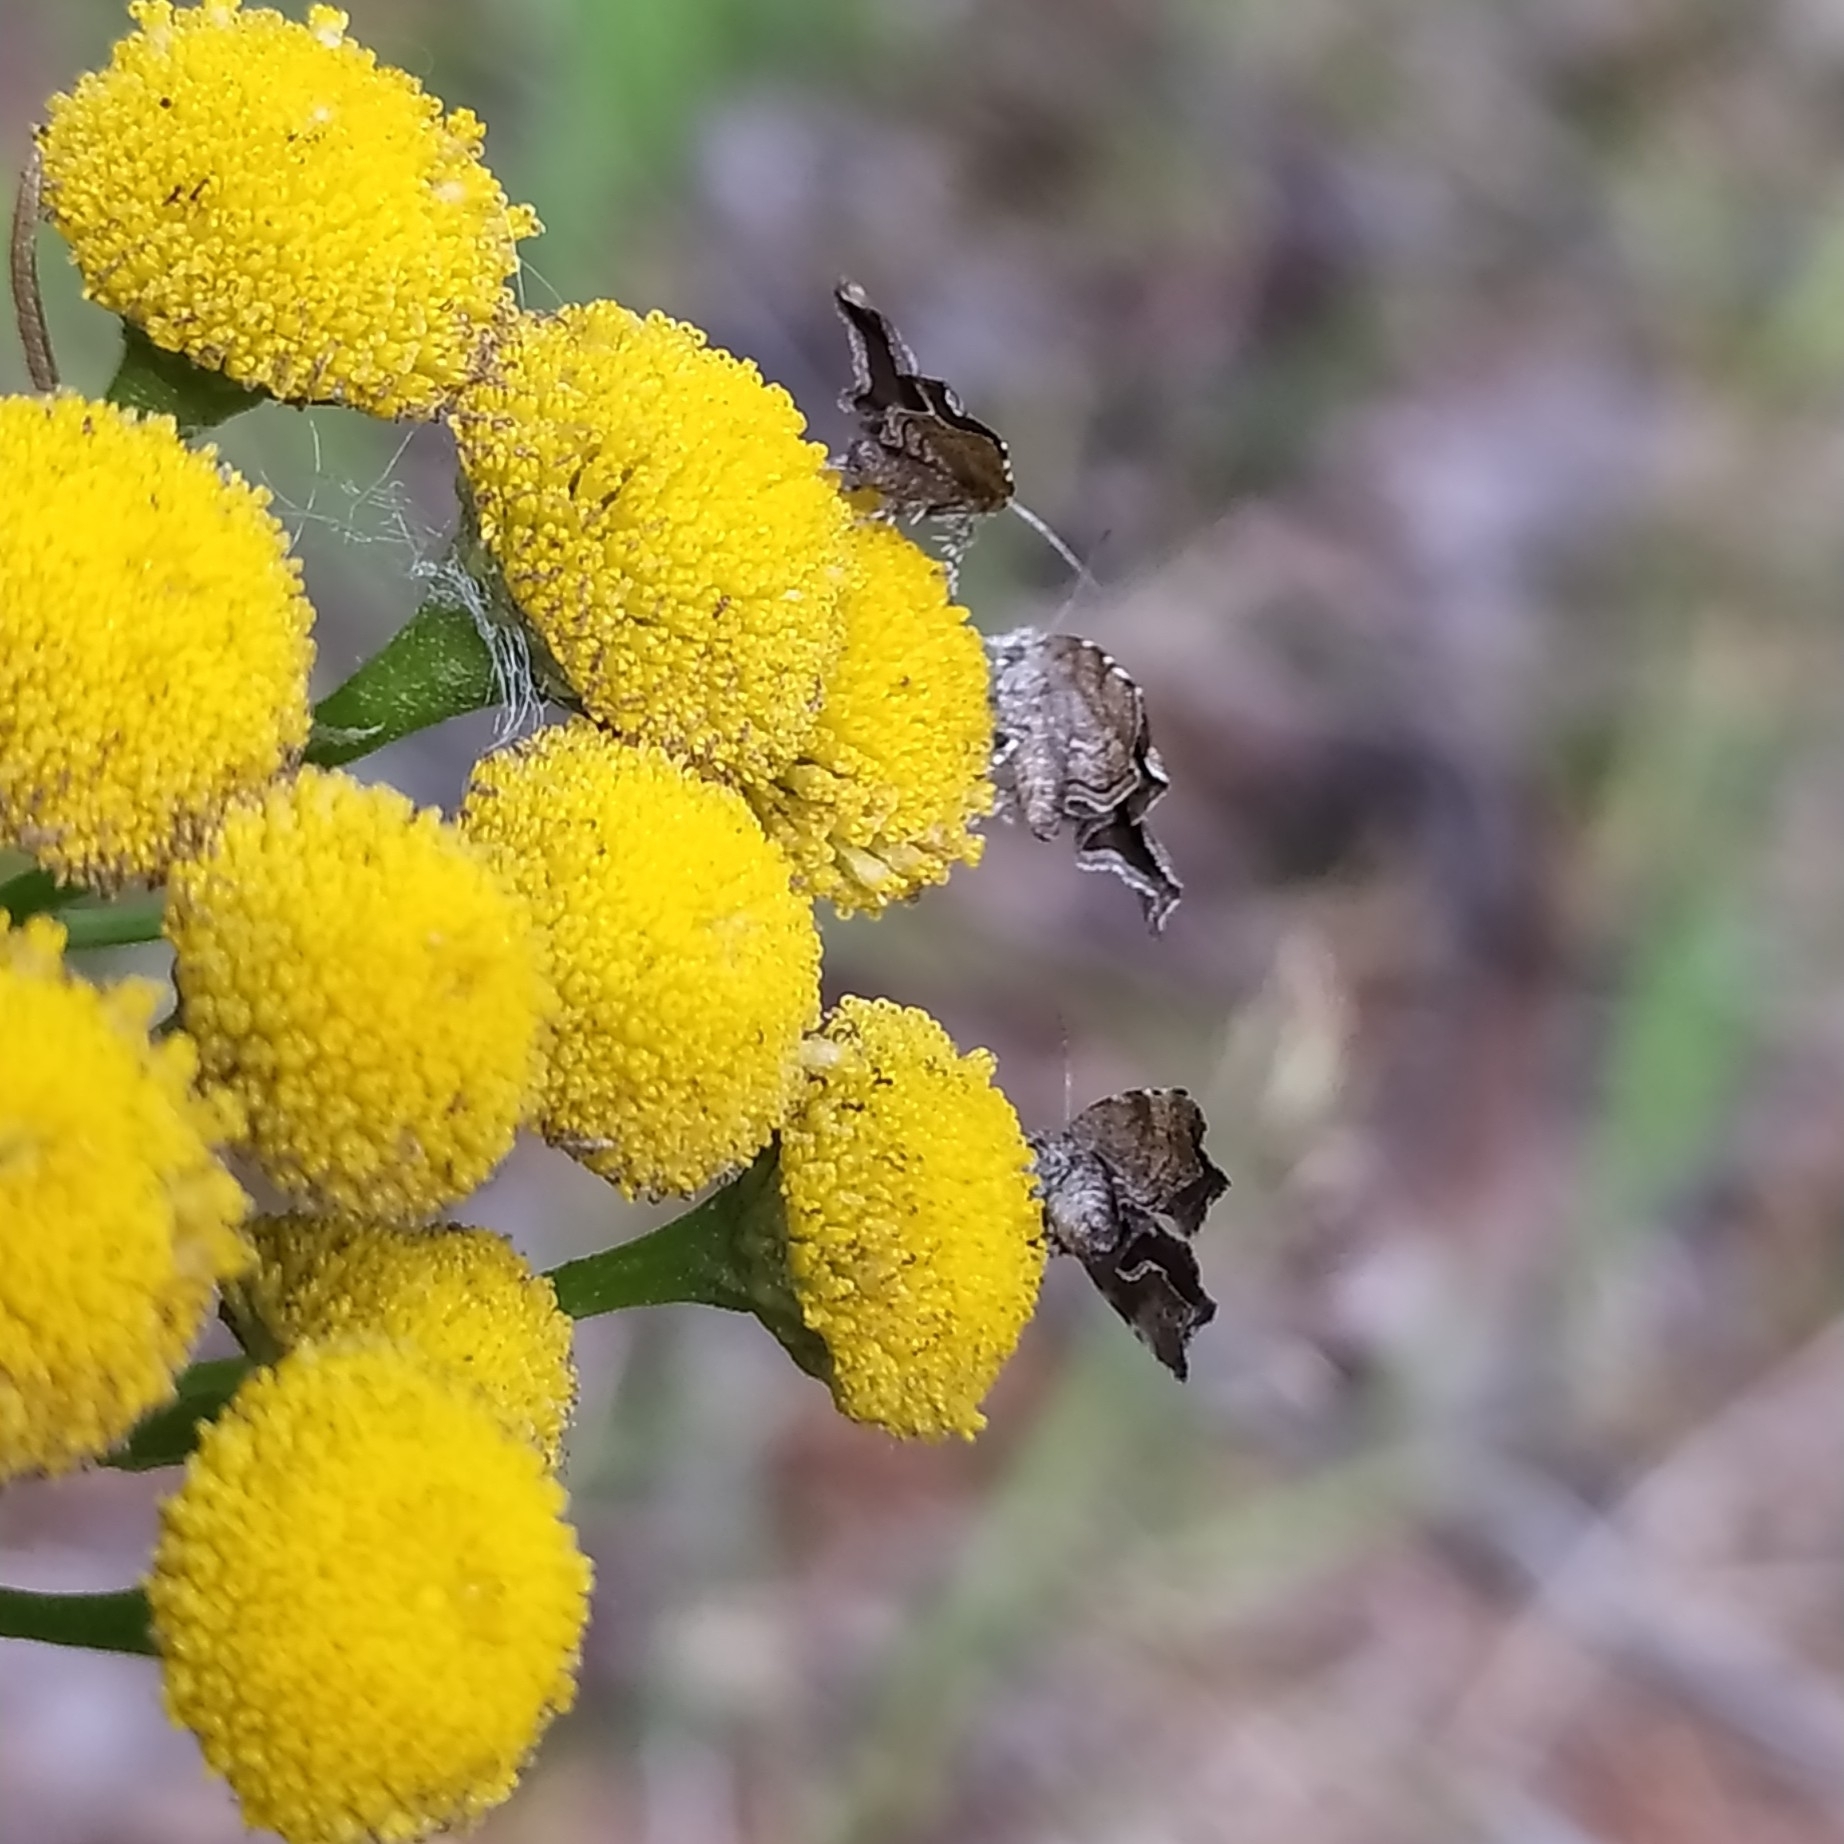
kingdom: Animalia
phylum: Arthropoda
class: Insecta
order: Lepidoptera
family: Choreutidae
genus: Choreutis
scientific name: Choreutis diana
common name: Inverness twitcher
